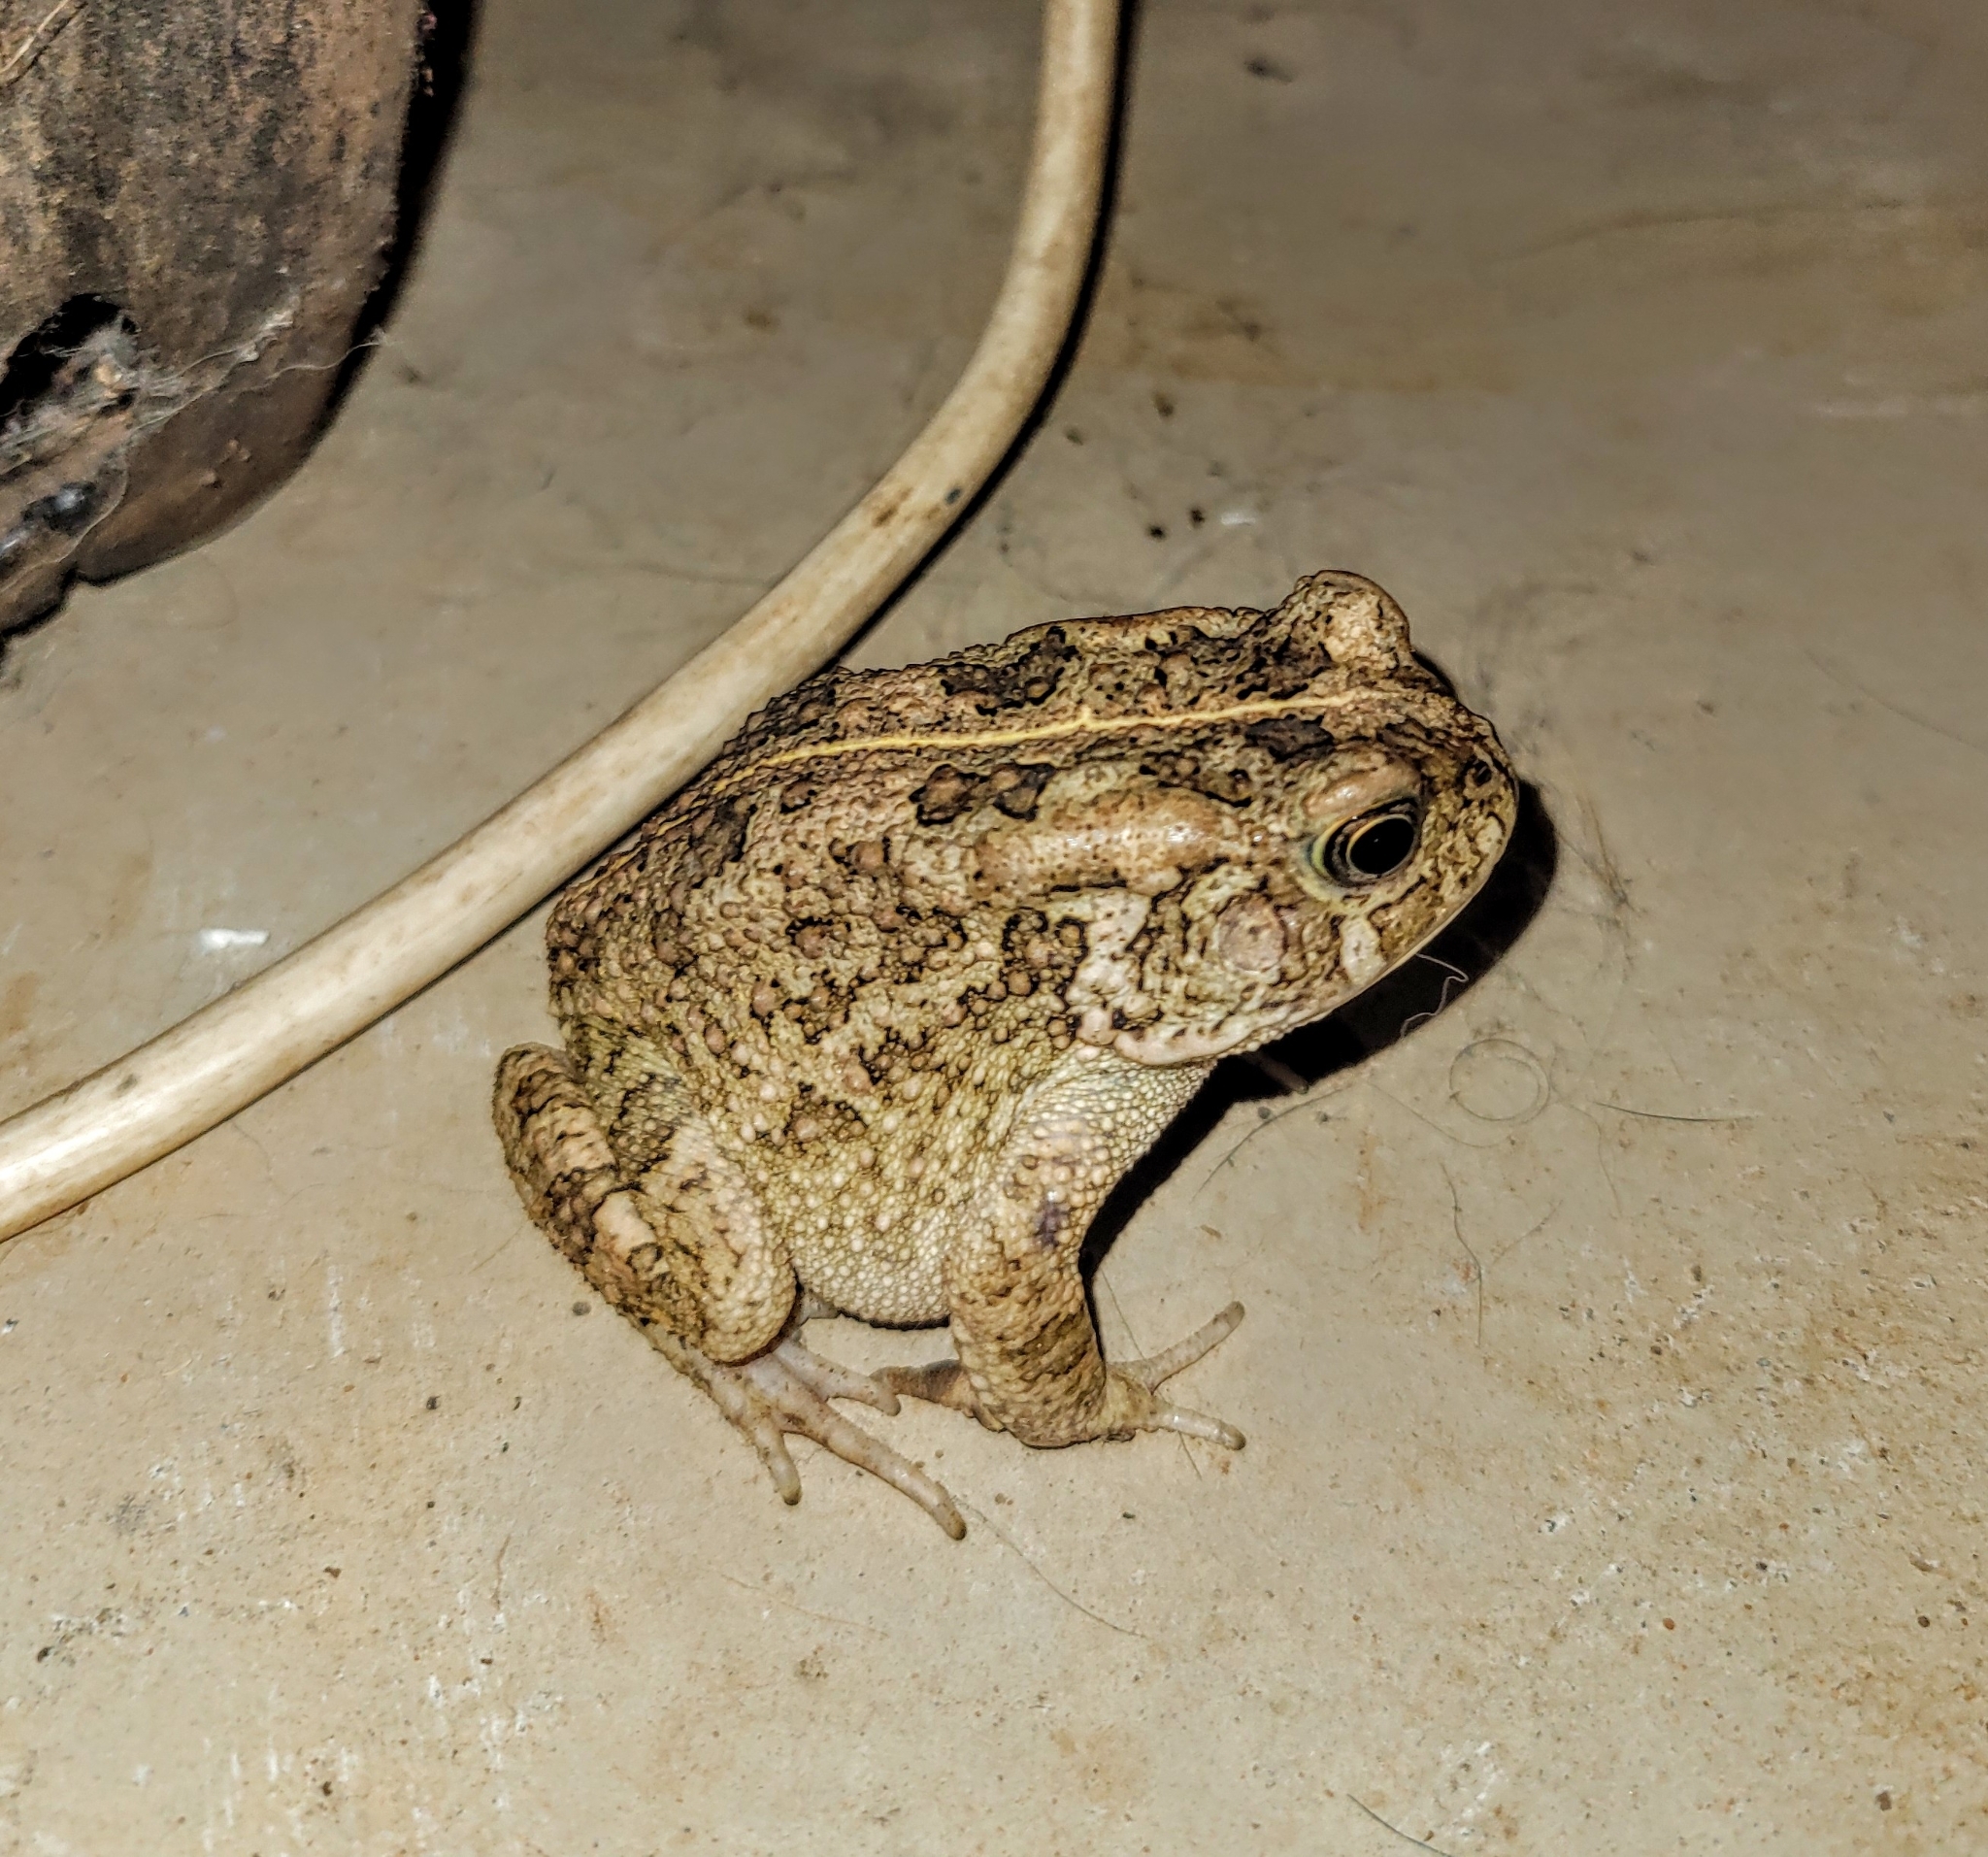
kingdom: Animalia
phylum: Chordata
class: Amphibia
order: Anura
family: Bufonidae
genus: Sclerophrys
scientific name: Sclerophrys gutturalis
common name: African common toad
